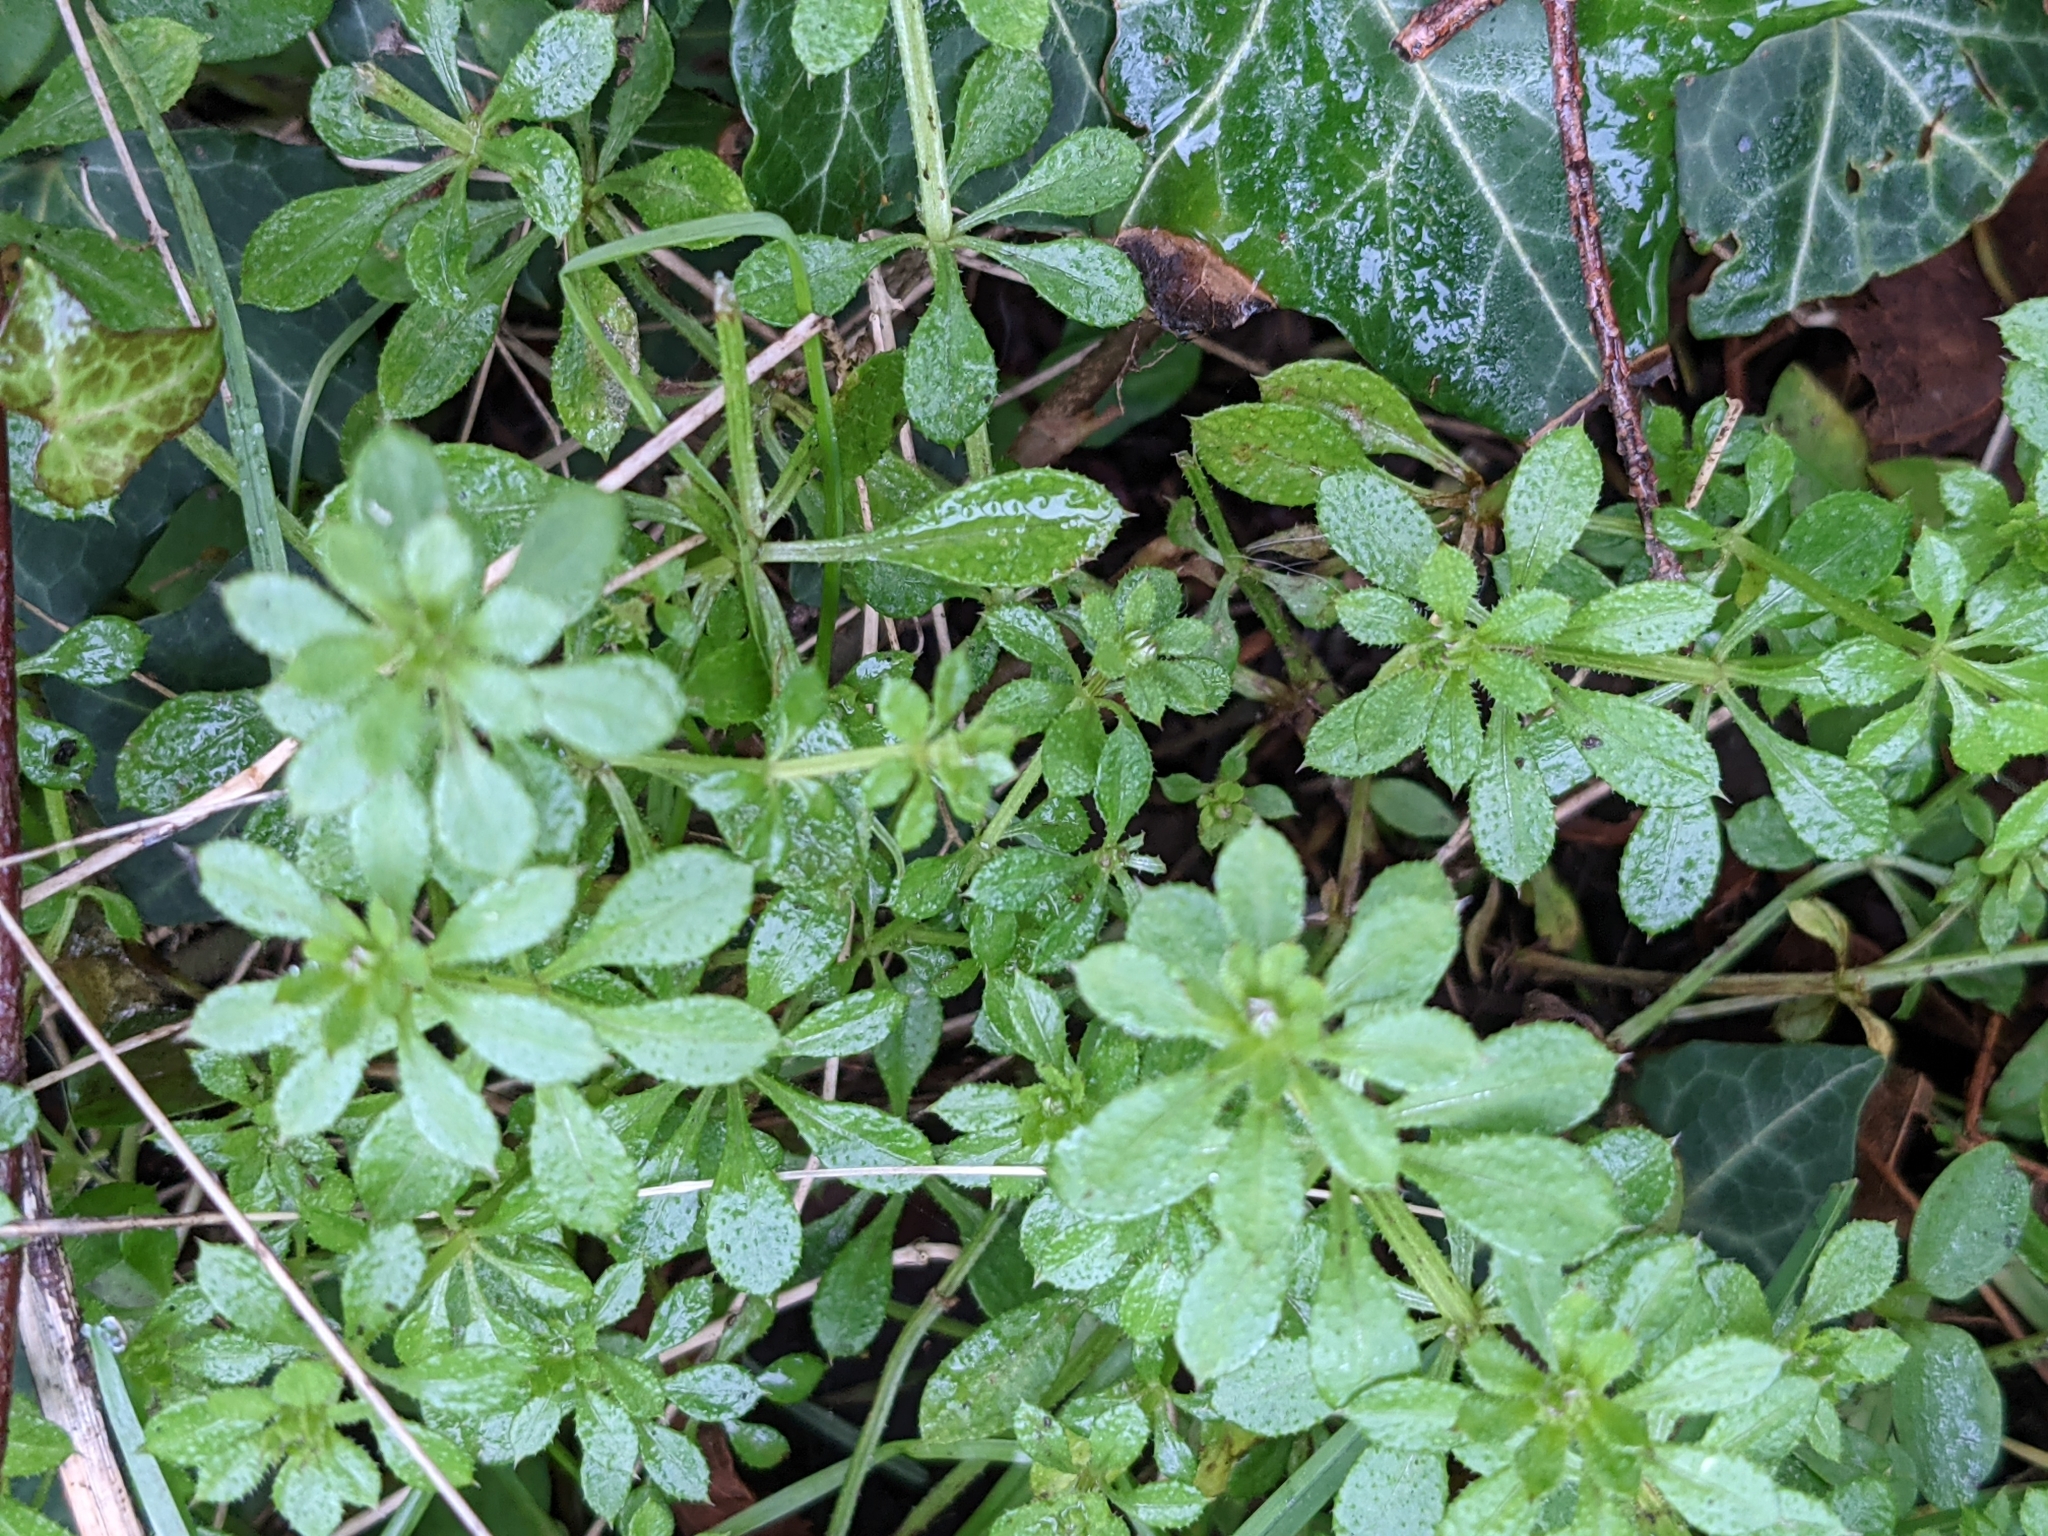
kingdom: Plantae
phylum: Tracheophyta
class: Magnoliopsida
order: Gentianales
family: Rubiaceae
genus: Galium
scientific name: Galium aparine
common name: Cleavers
